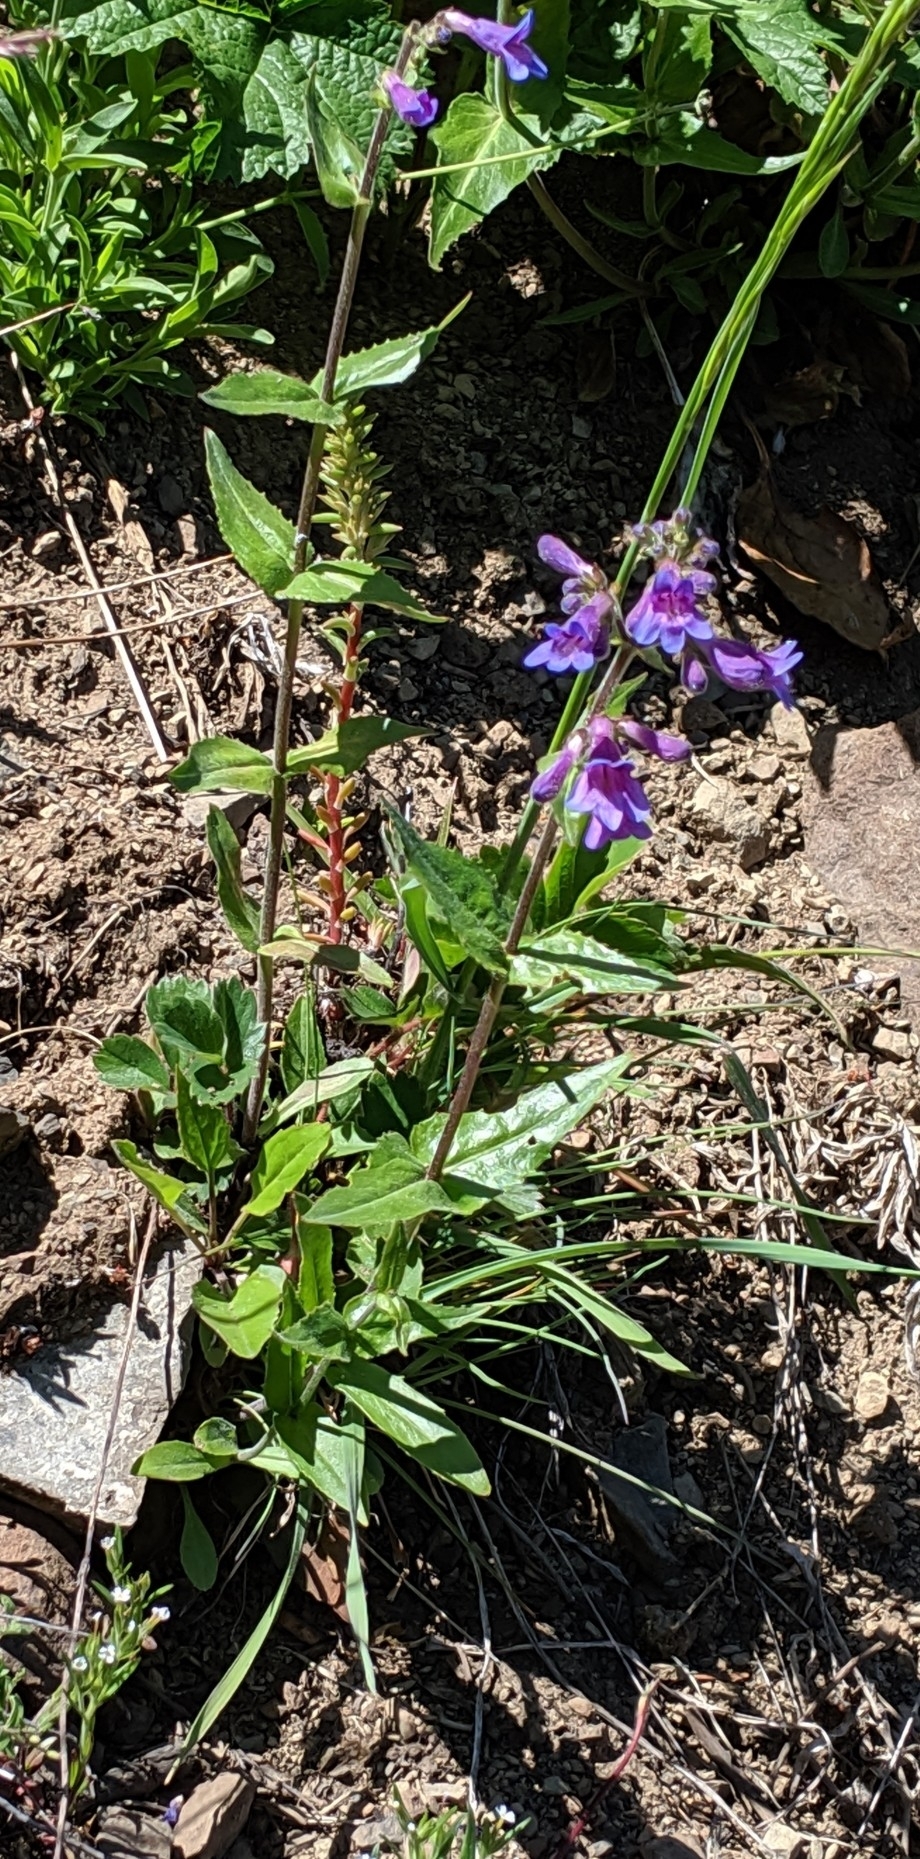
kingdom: Plantae
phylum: Tracheophyta
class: Magnoliopsida
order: Lamiales
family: Plantaginaceae
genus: Penstemon
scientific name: Penstemon serrulatus
